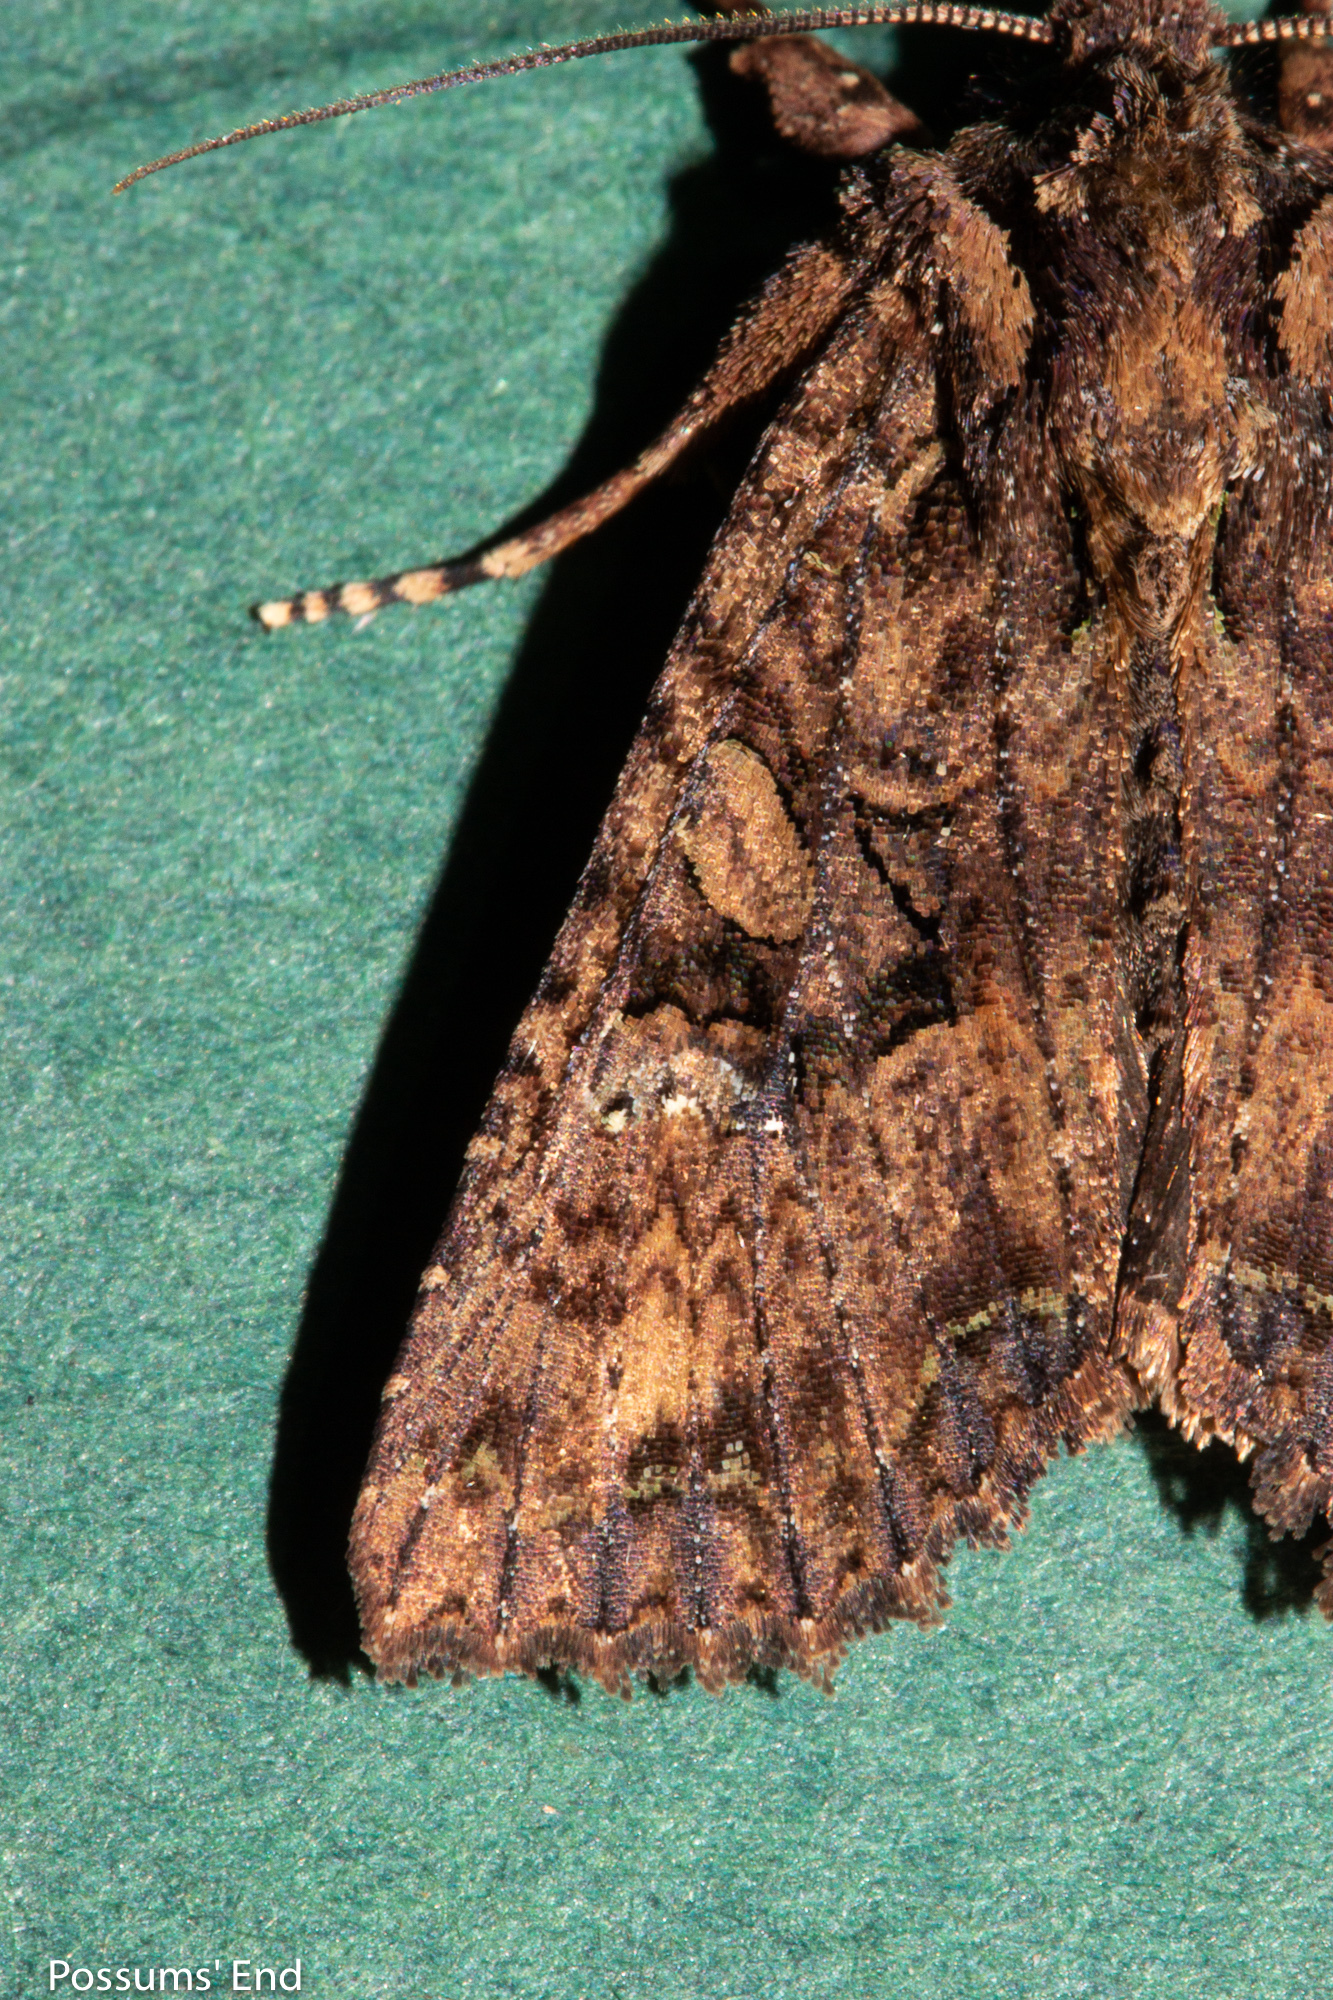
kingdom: Animalia
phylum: Arthropoda
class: Insecta
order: Lepidoptera
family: Noctuidae
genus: Meterana
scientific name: Meterana ochthistis
